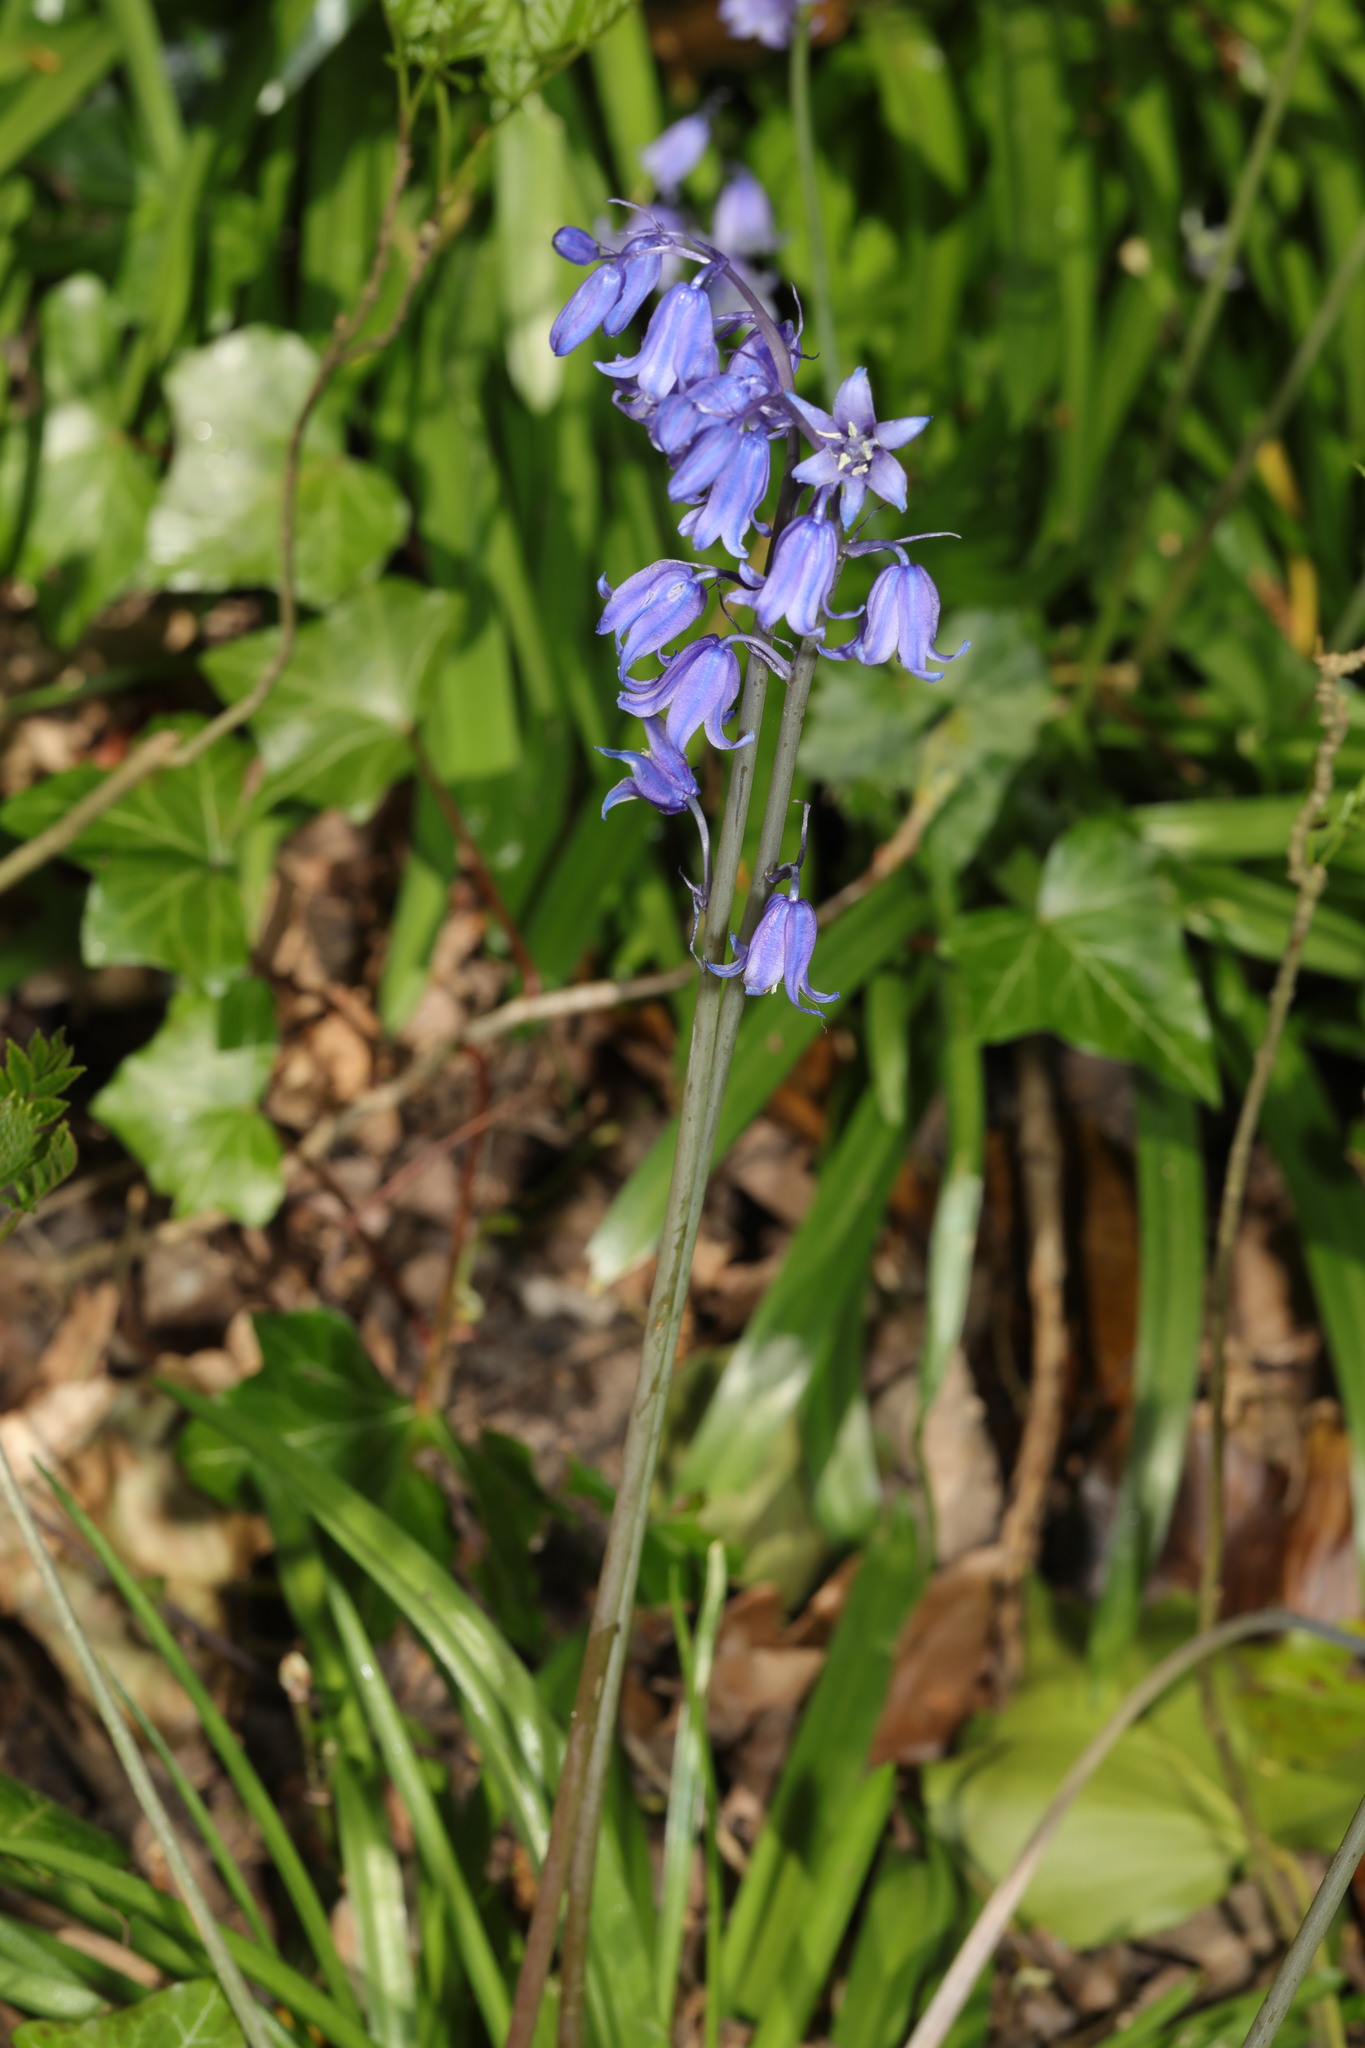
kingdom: Plantae
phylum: Tracheophyta
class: Liliopsida
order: Asparagales
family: Asparagaceae
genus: Hyacinthoides
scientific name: Hyacinthoides massartiana
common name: Hyacinthoides
